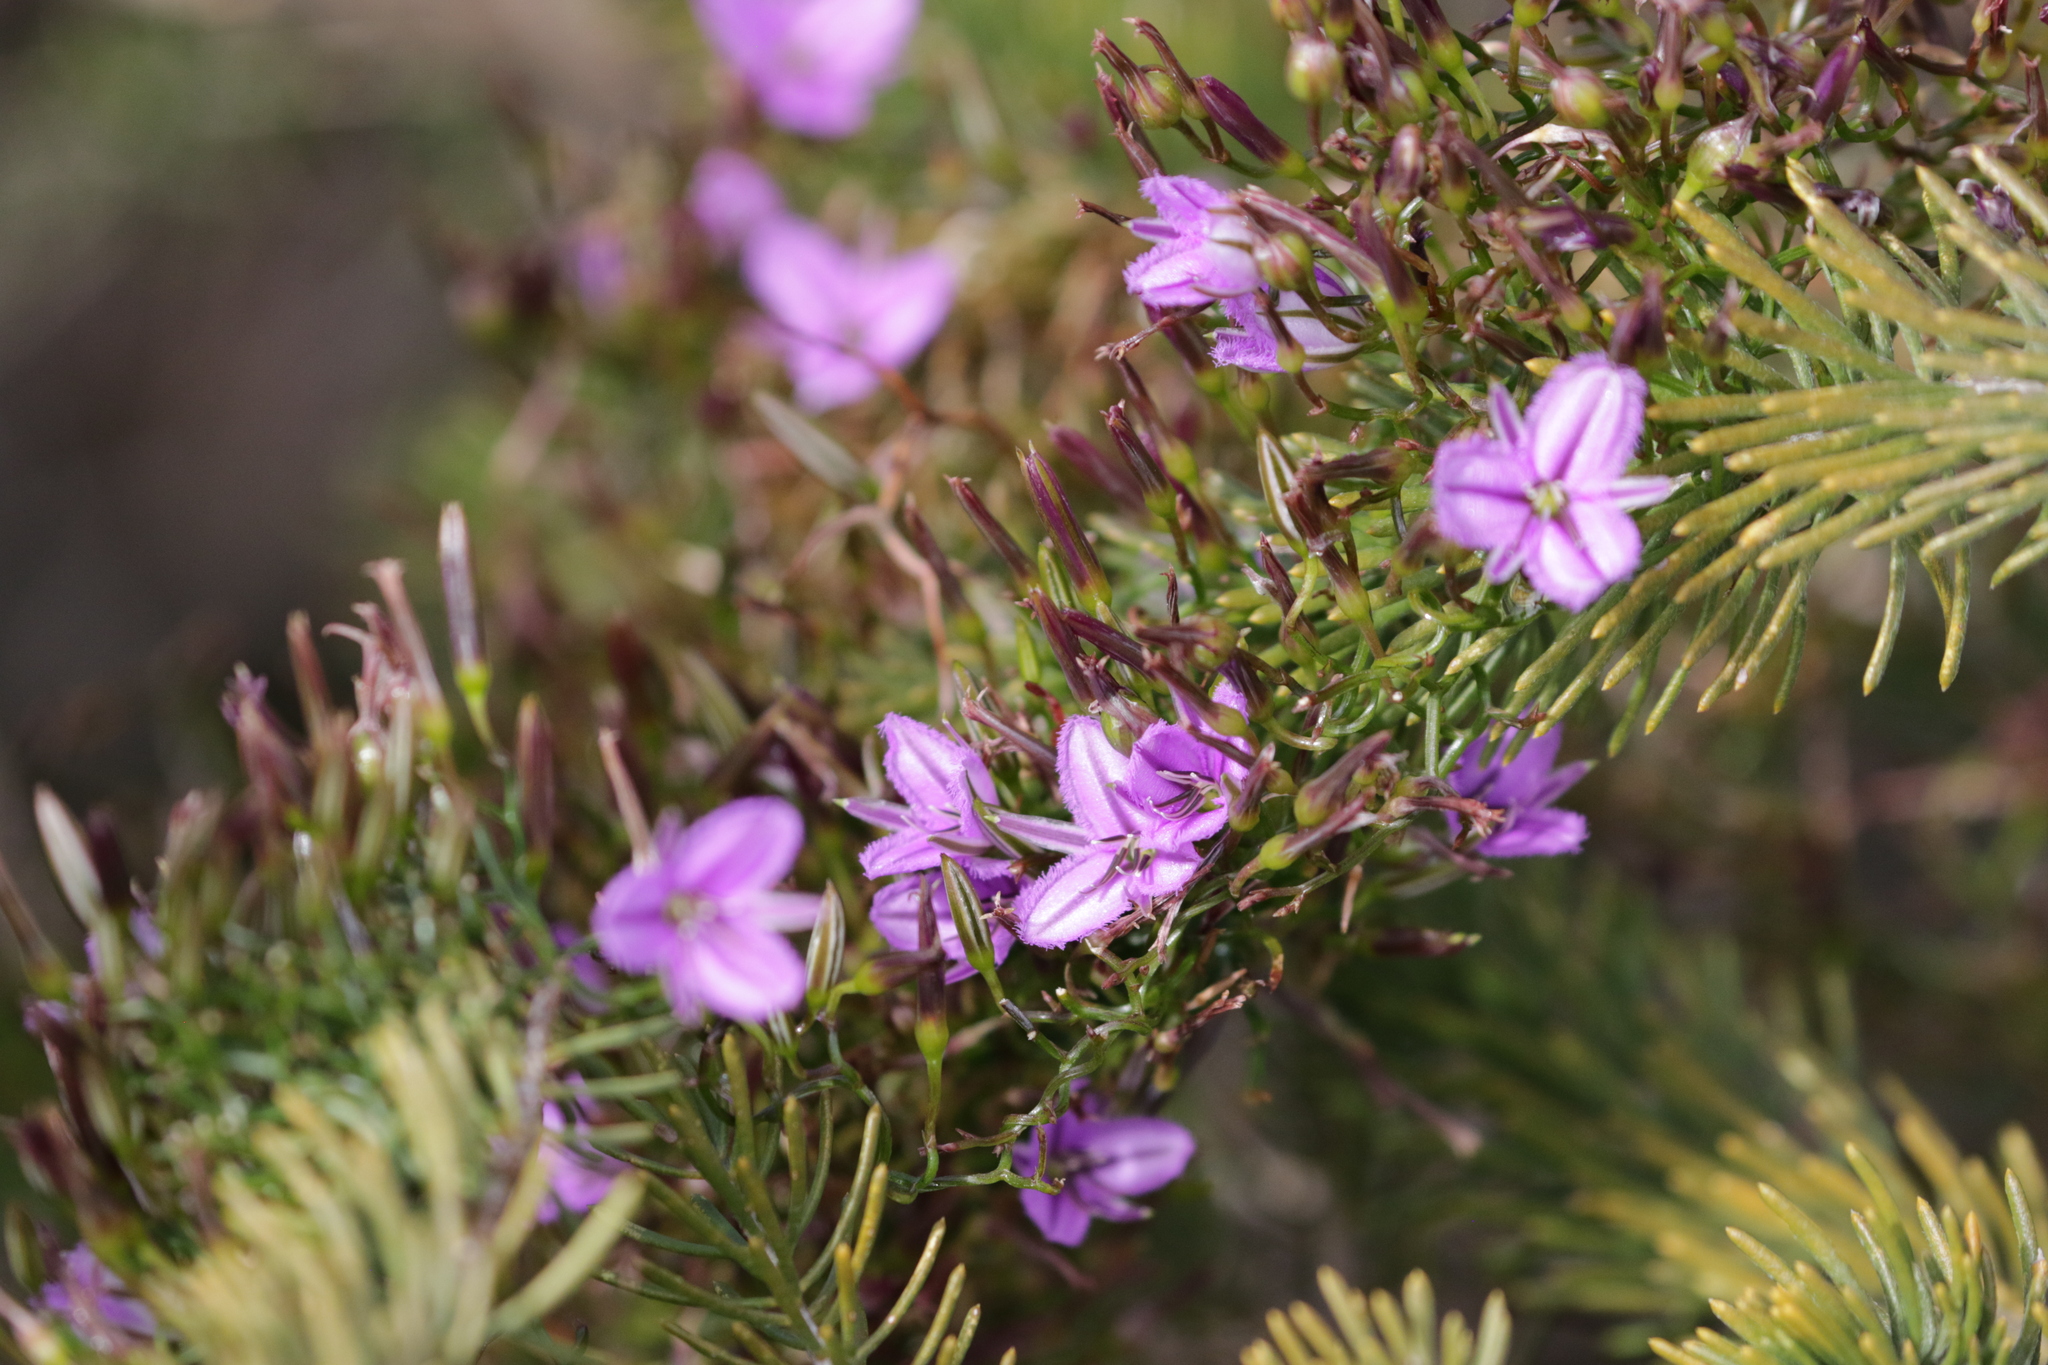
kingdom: Plantae
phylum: Tracheophyta
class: Liliopsida
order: Asparagales
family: Asparagaceae
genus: Thysanotus
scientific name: Thysanotus manglesianus
